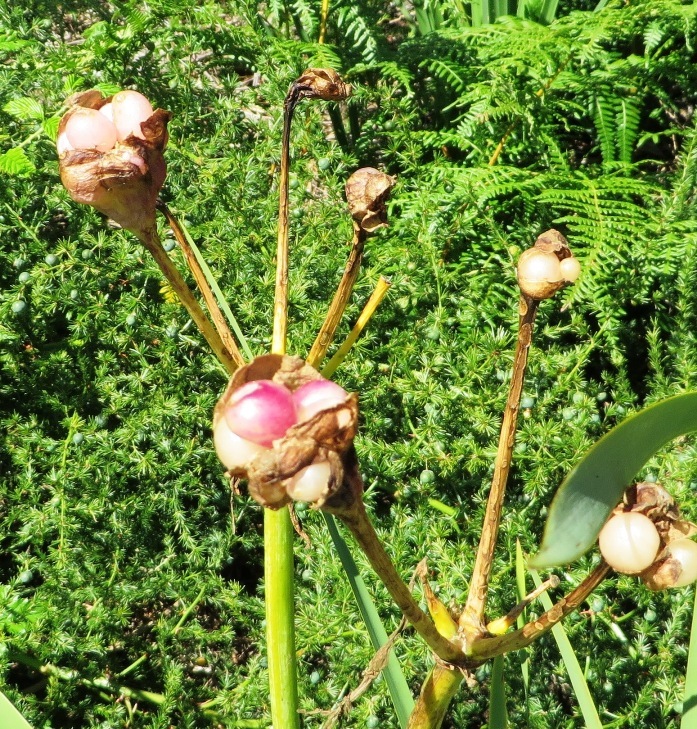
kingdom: Plantae
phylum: Tracheophyta
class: Liliopsida
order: Asparagales
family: Amaryllidaceae
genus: Amaryllis
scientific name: Amaryllis belladonna
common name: Jersey lily
